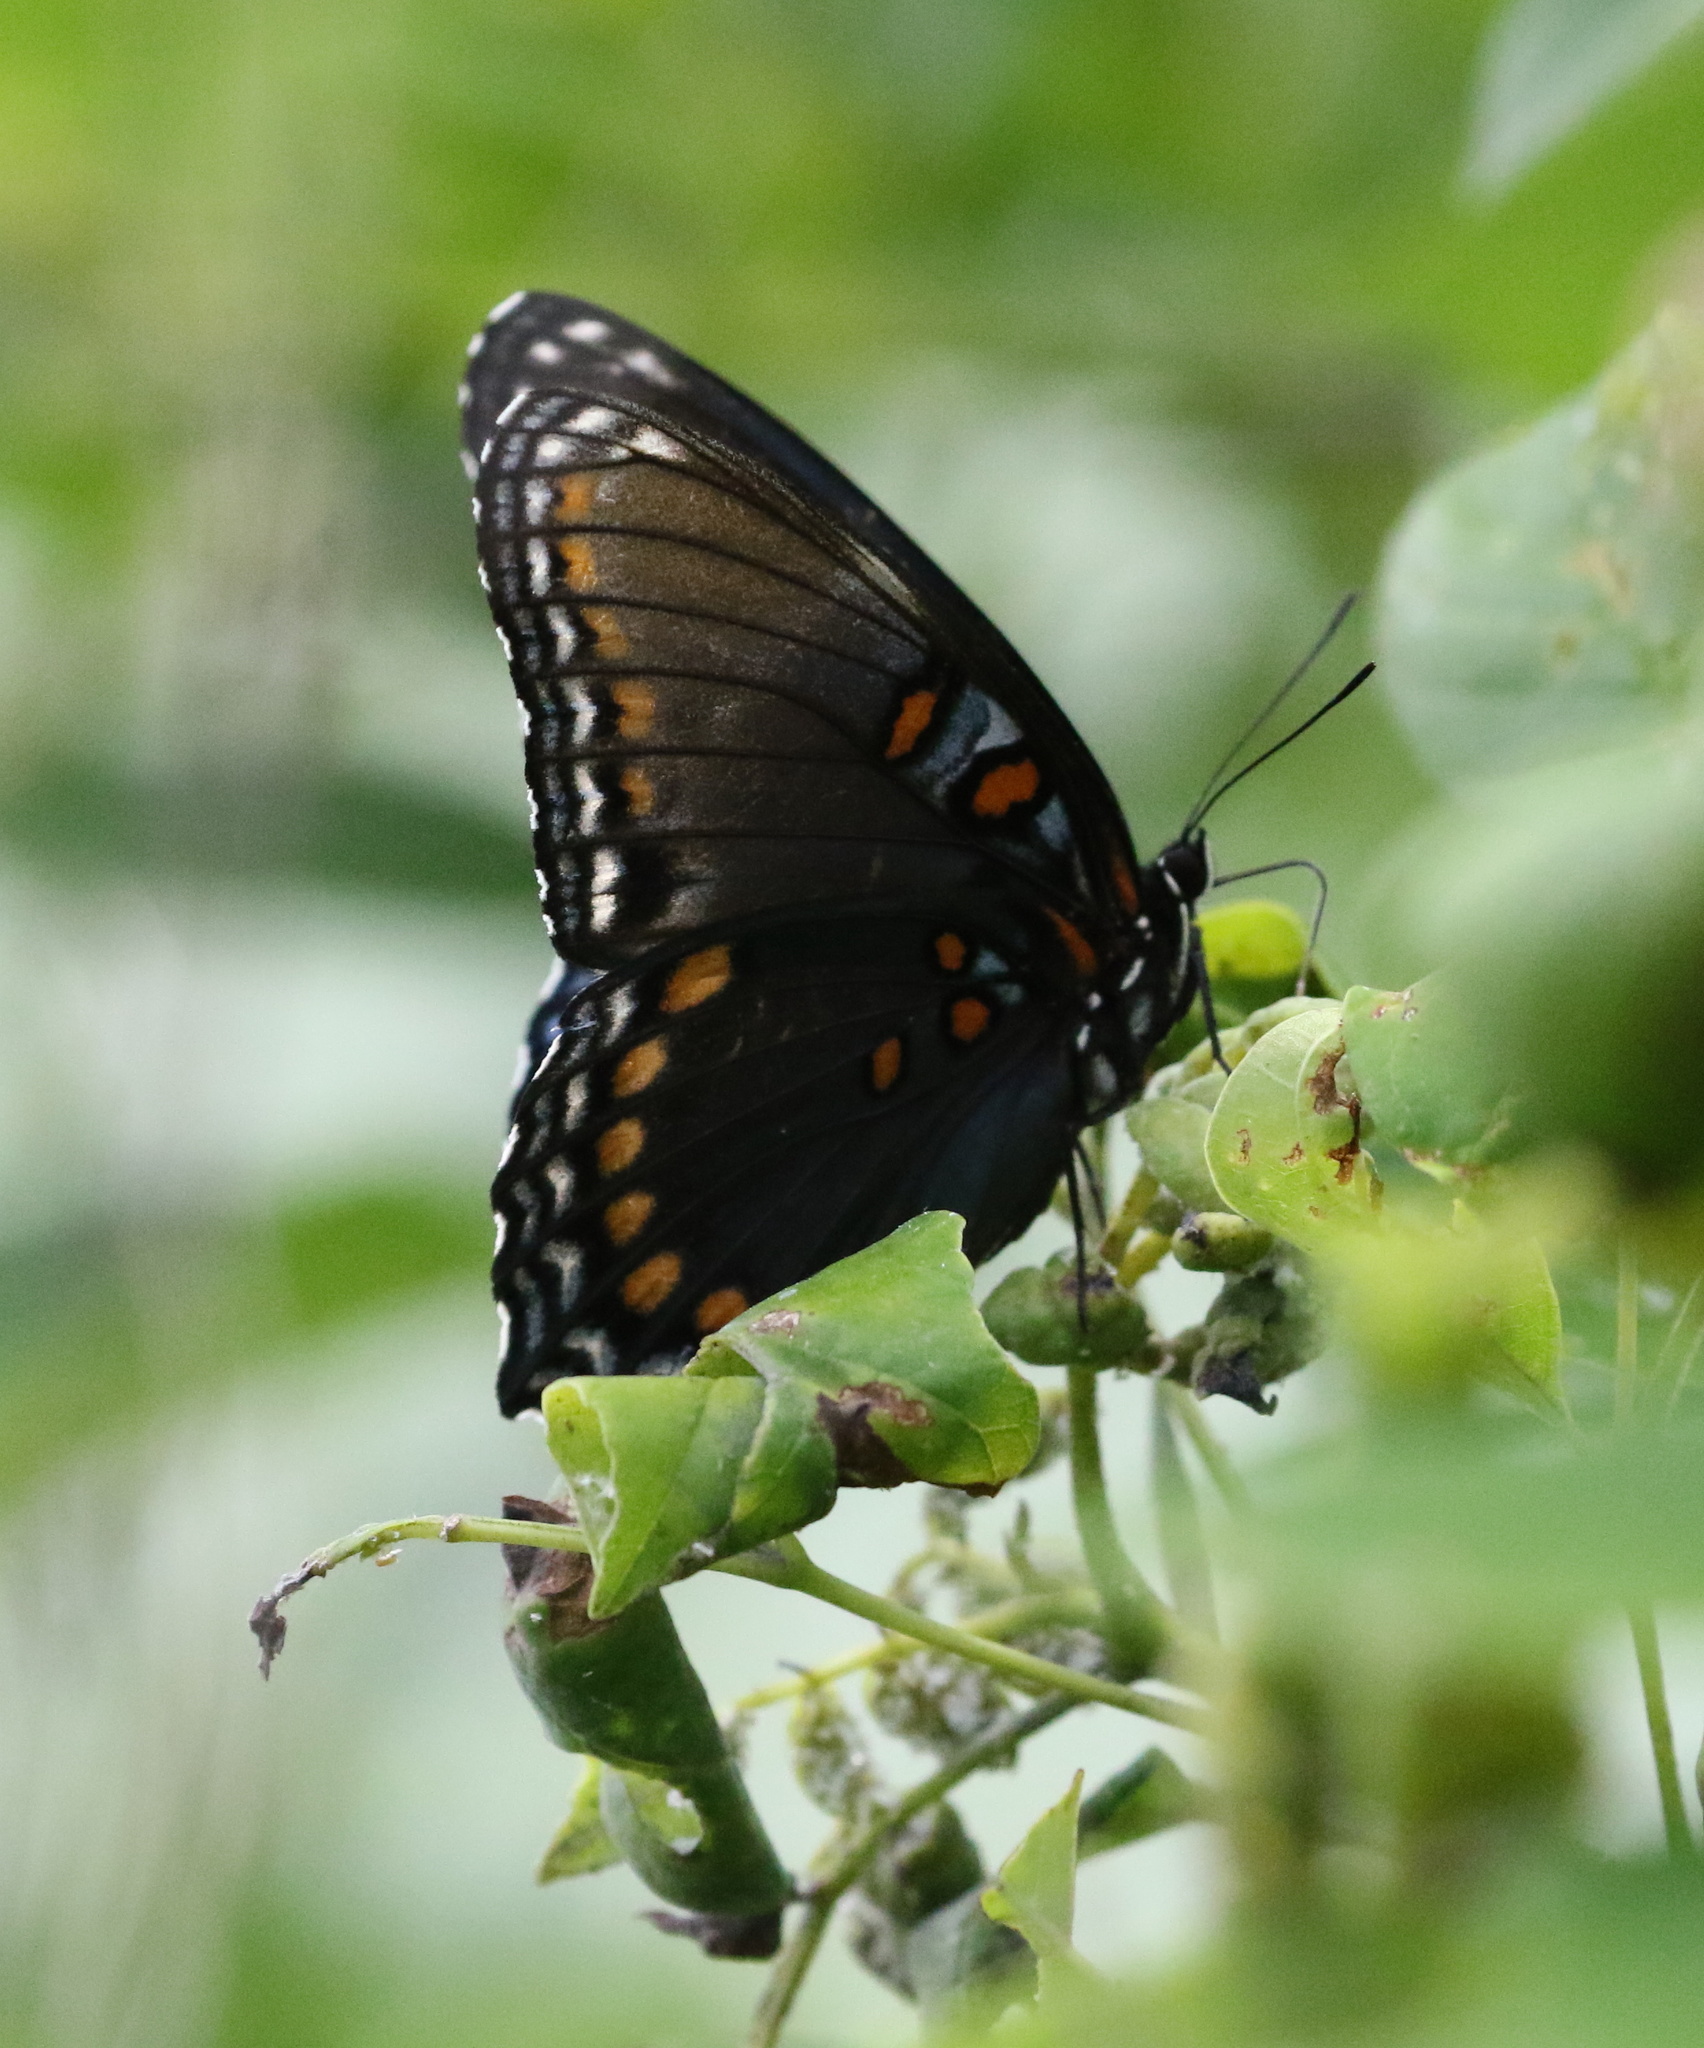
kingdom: Animalia
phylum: Arthropoda
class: Insecta
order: Lepidoptera
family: Nymphalidae
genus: Limenitis
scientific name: Limenitis arthemis
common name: Red-spotted admiral
